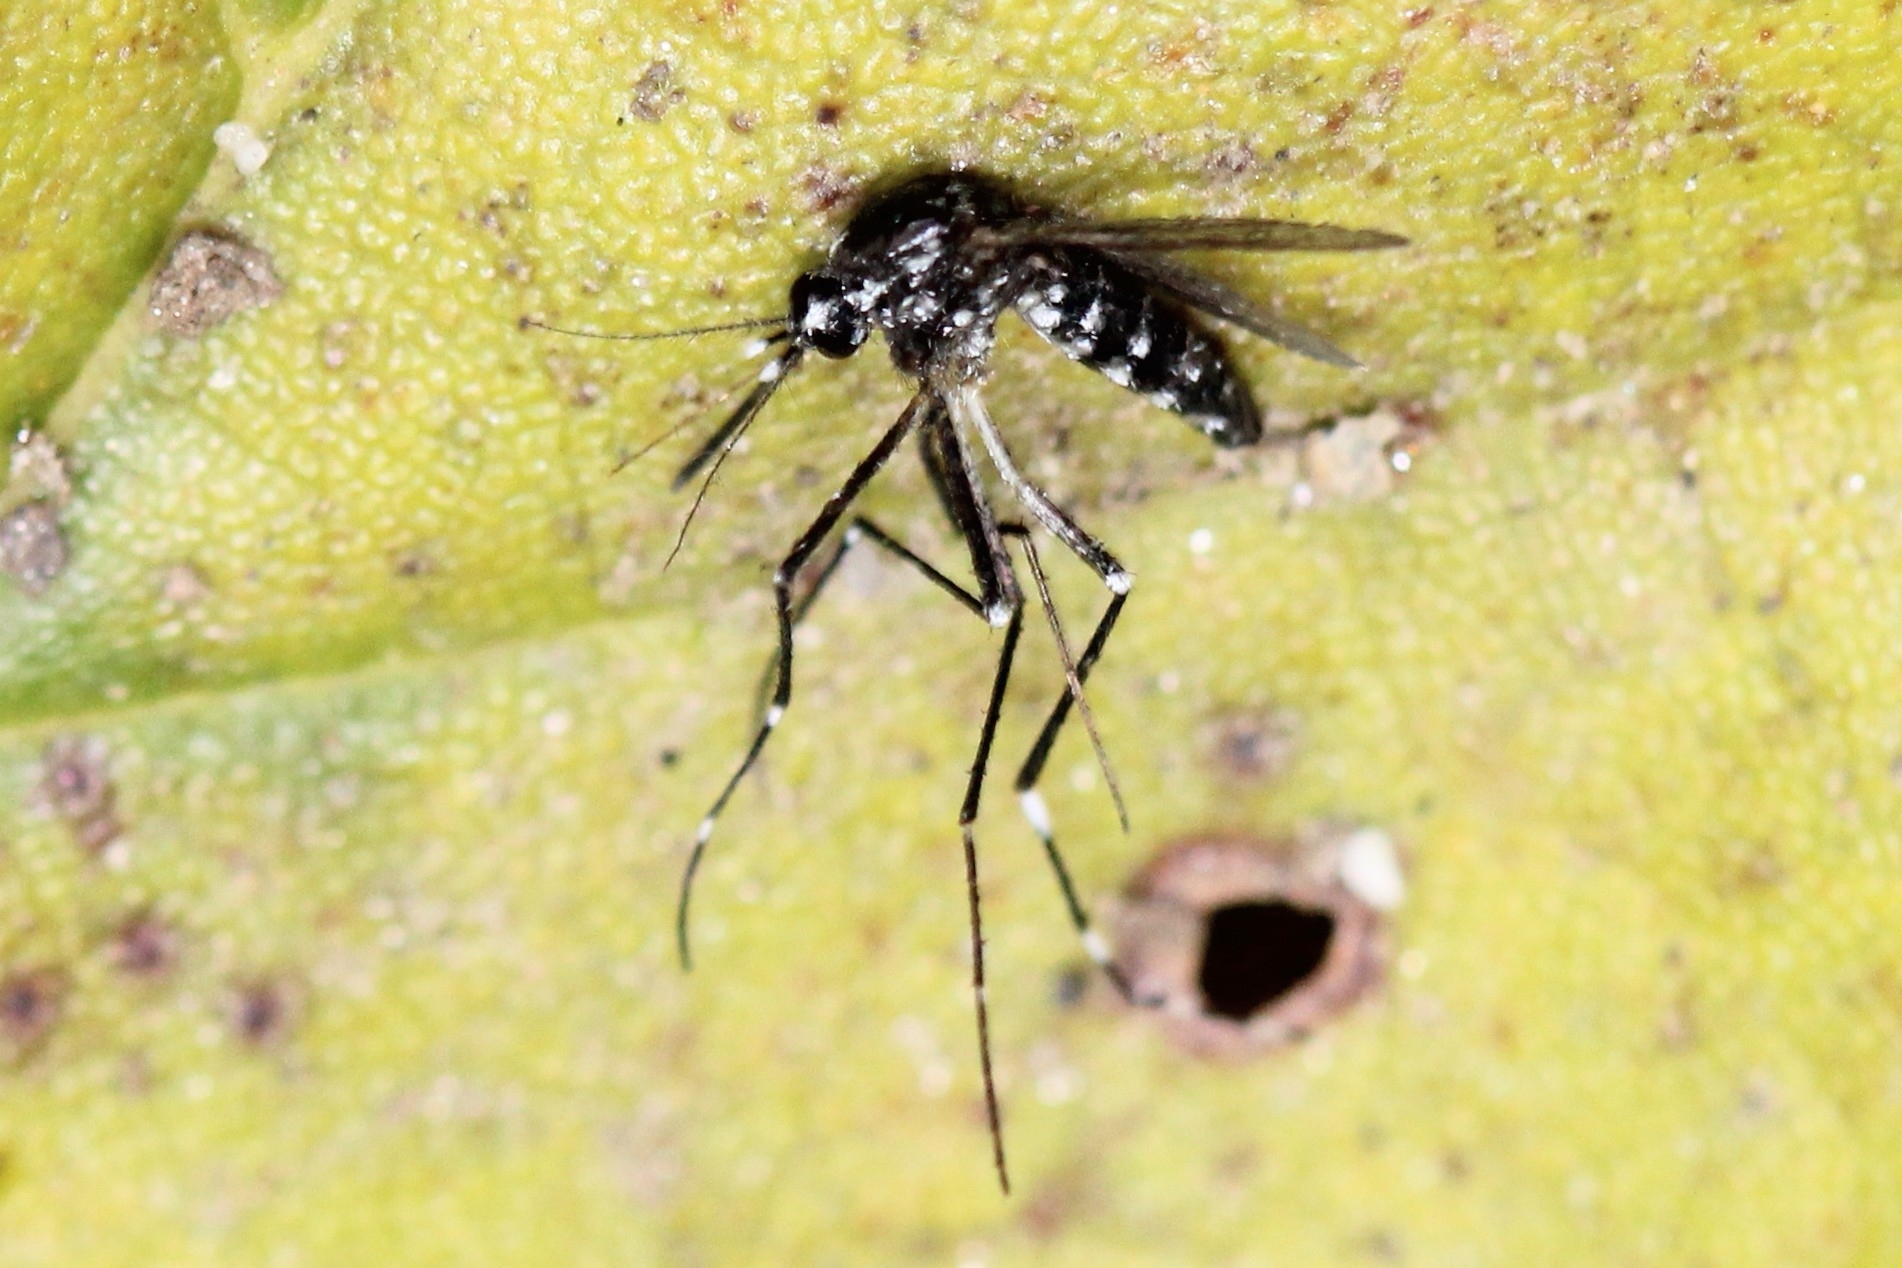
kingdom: Animalia
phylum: Arthropoda
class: Insecta
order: Diptera
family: Culicidae
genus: Aedes
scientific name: Aedes albopictus
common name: Tiger mosquito
